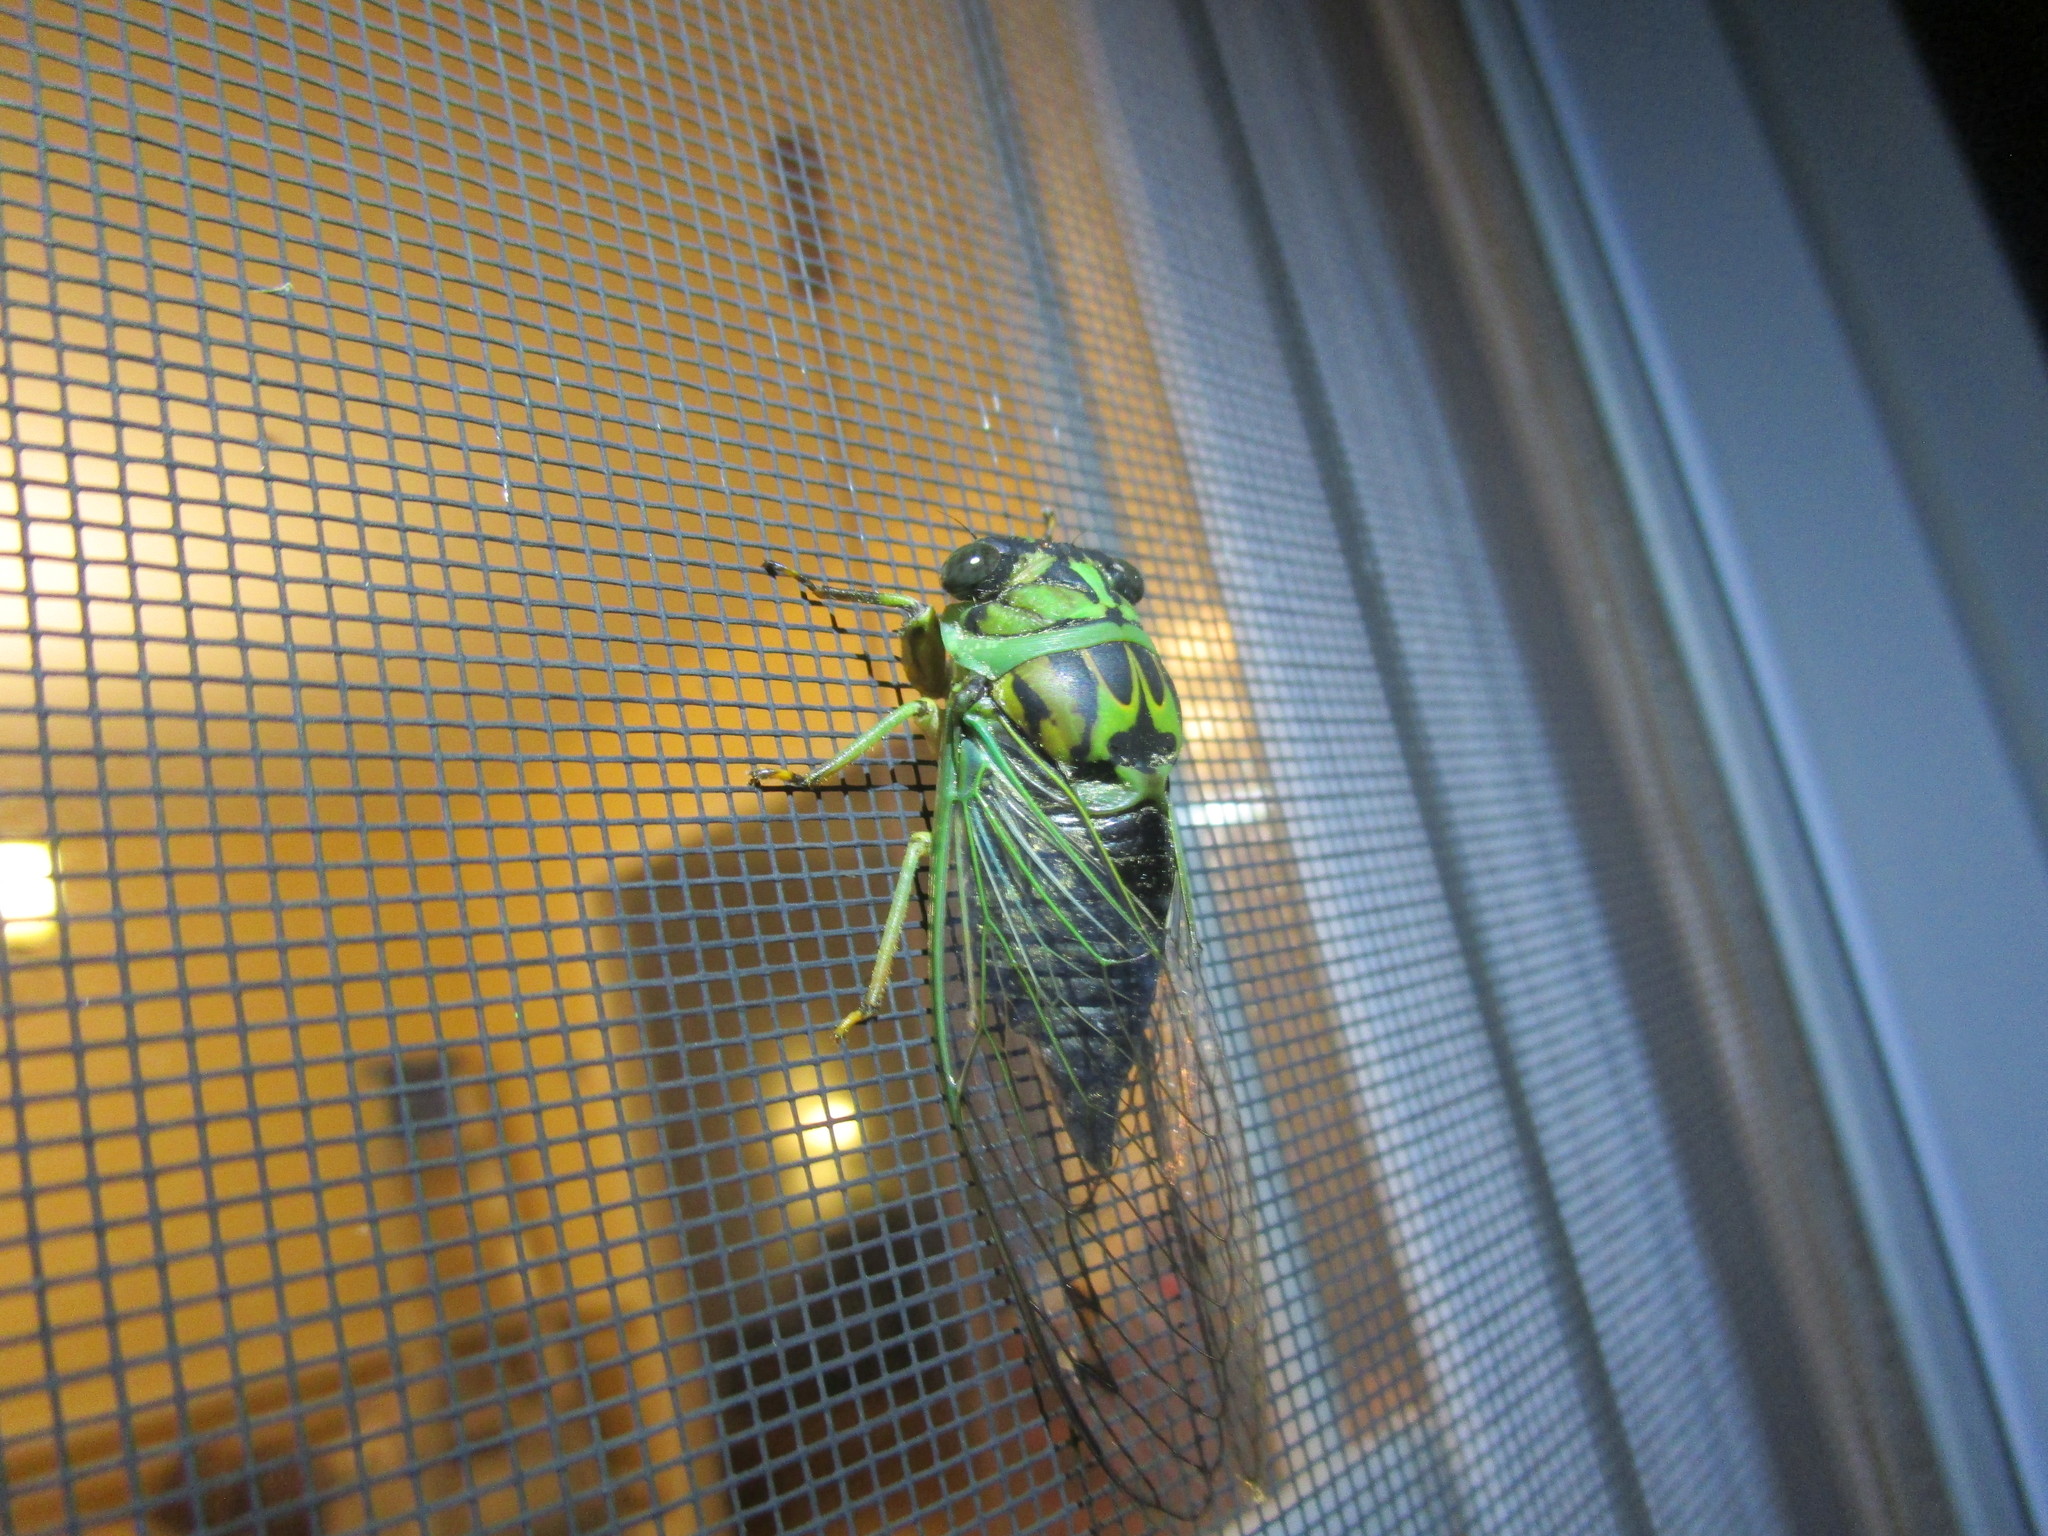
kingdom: Animalia
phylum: Arthropoda
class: Insecta
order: Hemiptera
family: Cicadidae
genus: Neotibicen
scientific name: Neotibicen linnei
